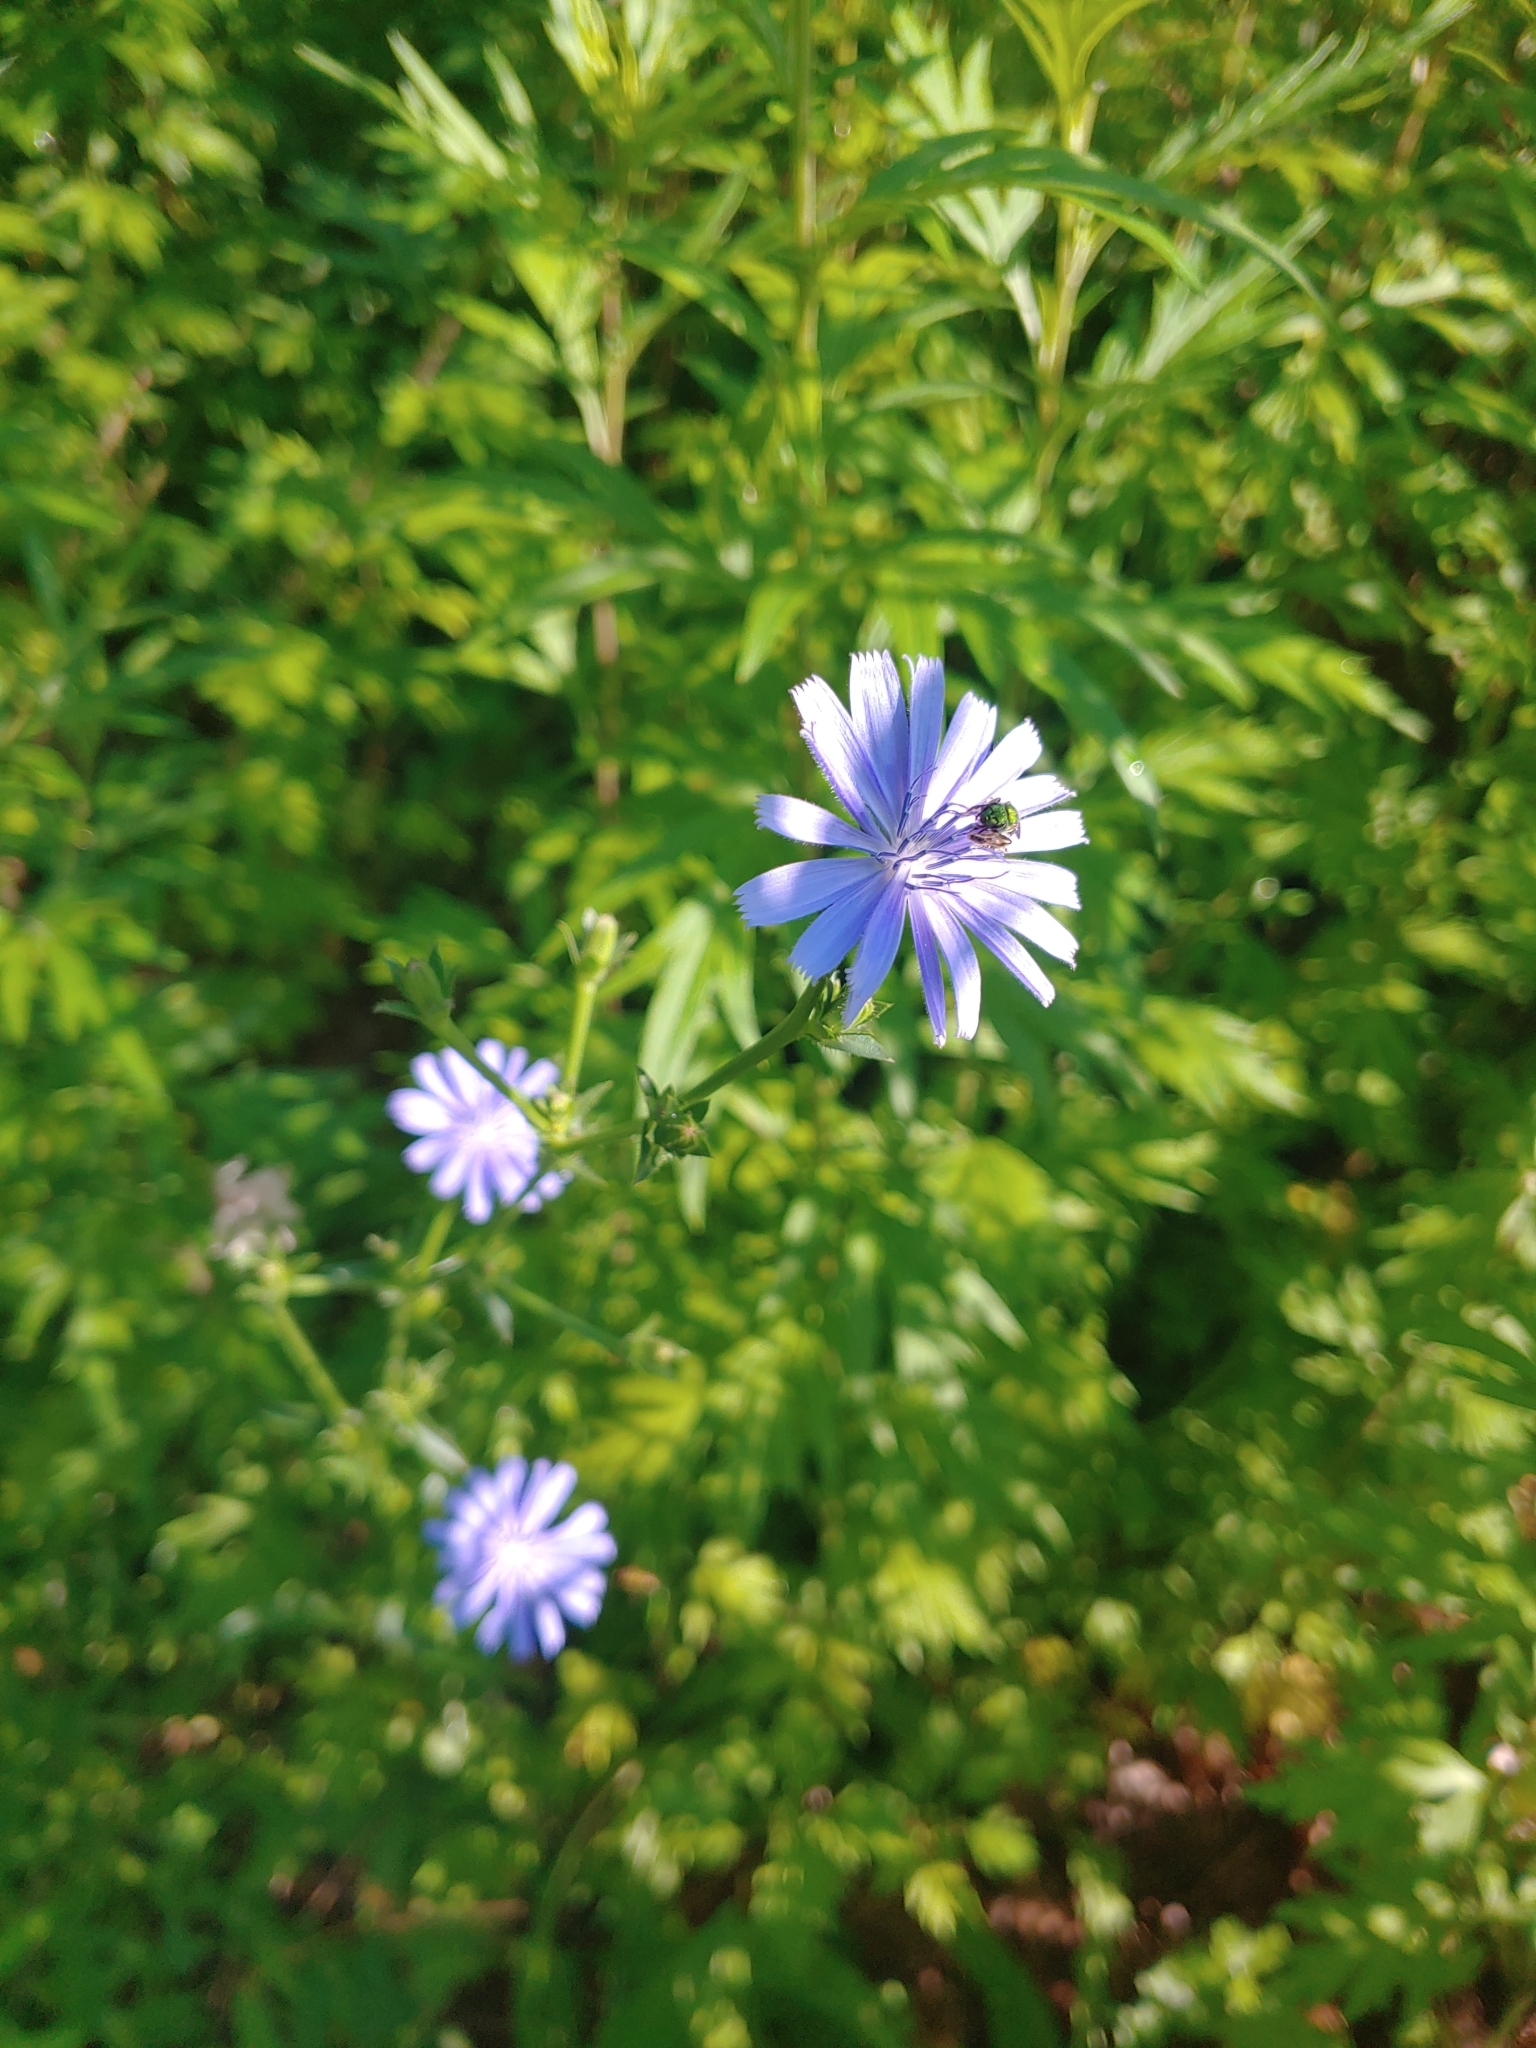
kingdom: Plantae
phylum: Tracheophyta
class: Magnoliopsida
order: Asterales
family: Asteraceae
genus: Cichorium
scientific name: Cichorium intybus
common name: Chicory
